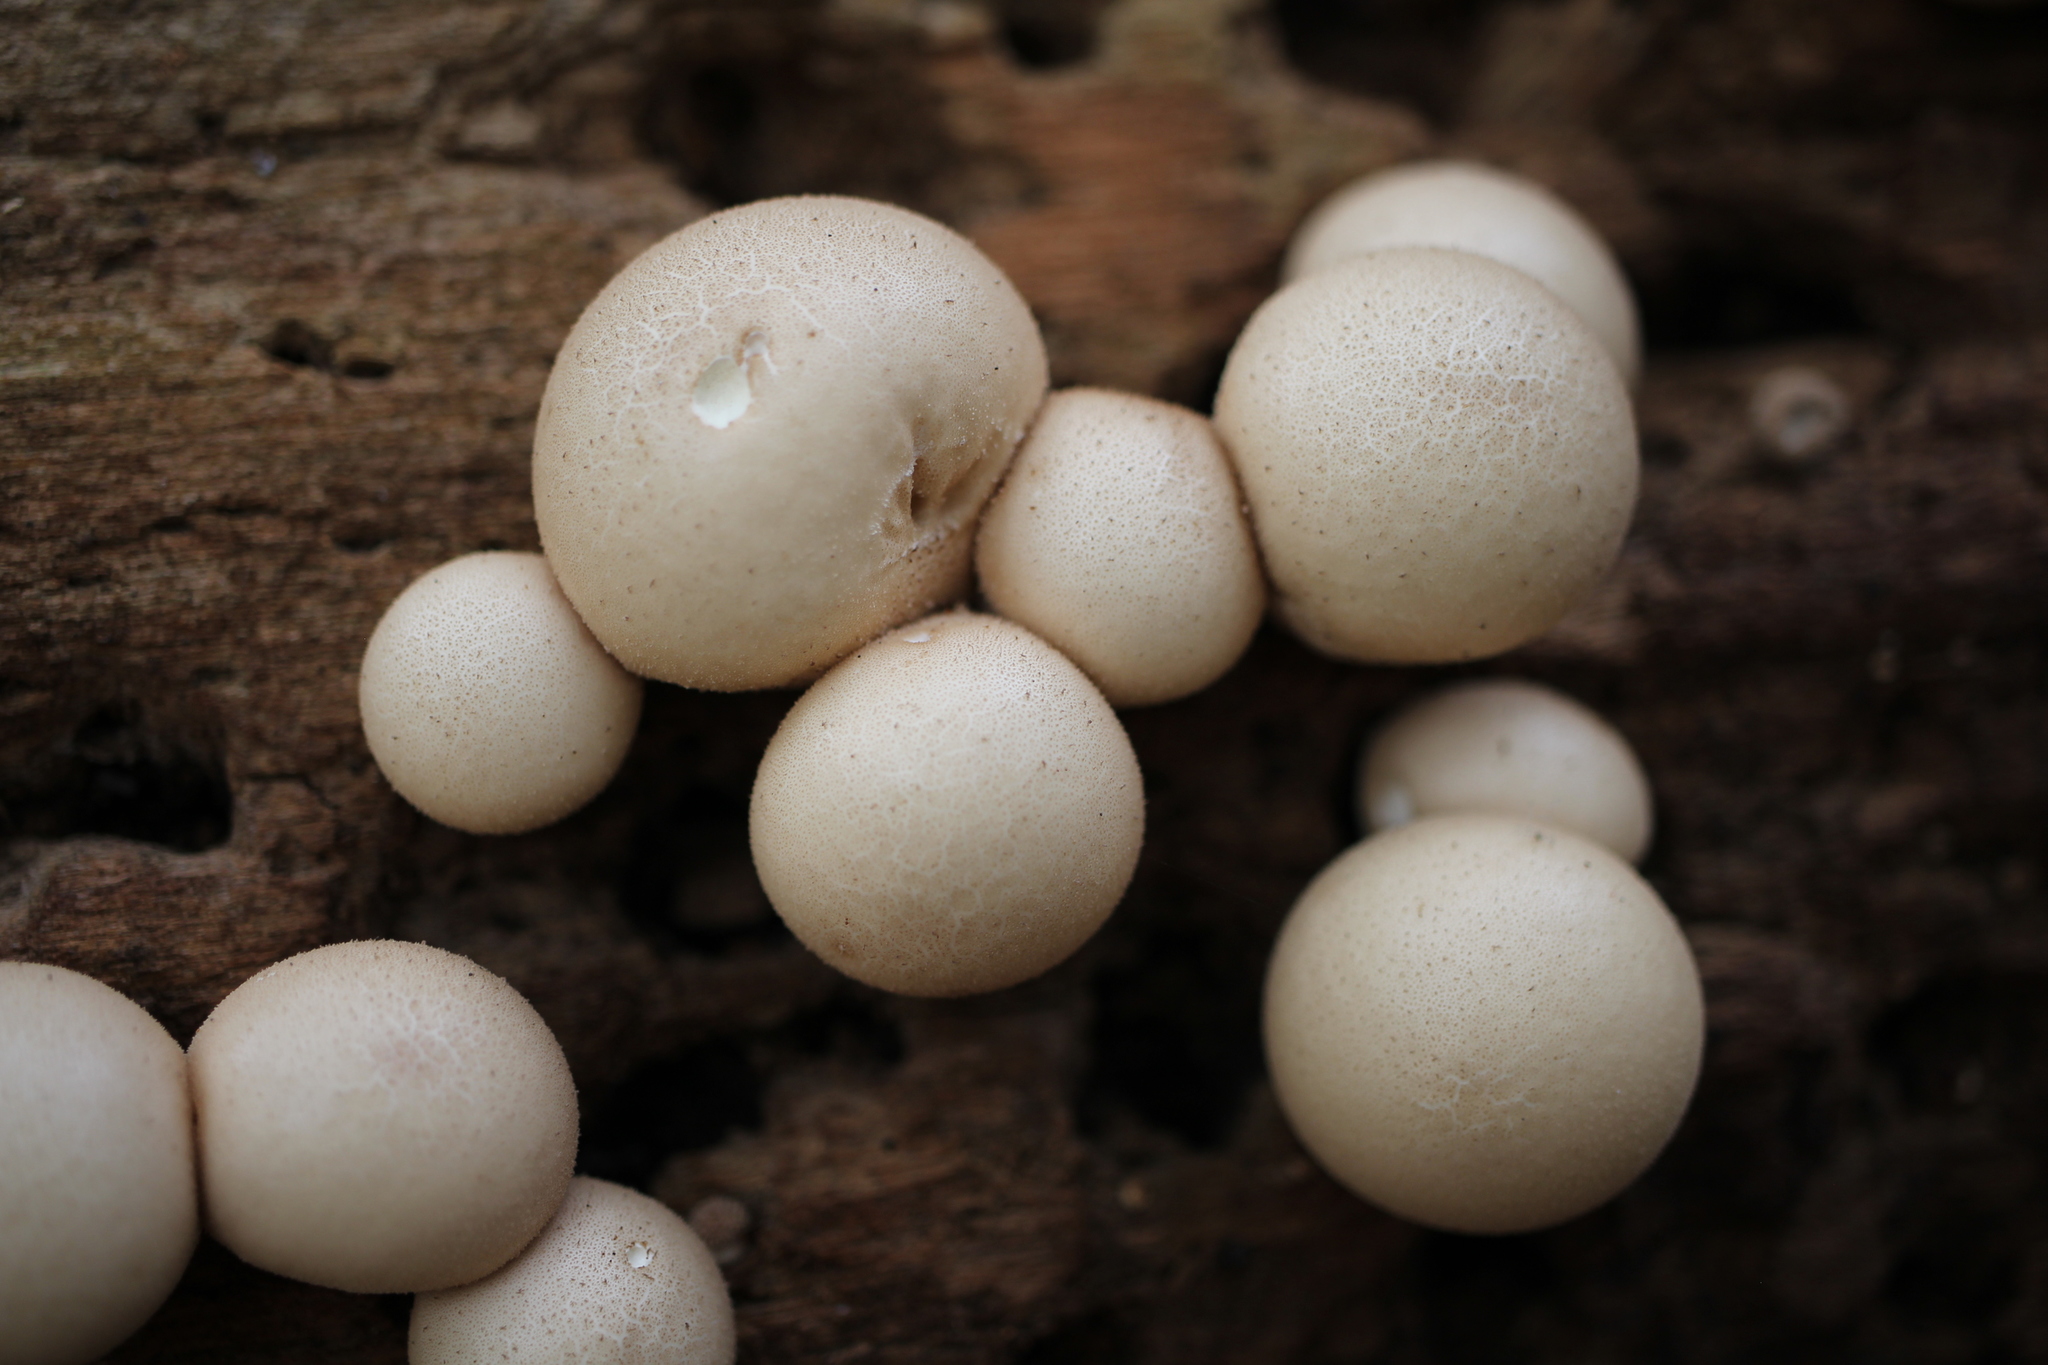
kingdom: Fungi
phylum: Basidiomycota
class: Agaricomycetes
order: Agaricales
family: Lycoperdaceae
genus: Apioperdon
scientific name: Apioperdon pyriforme
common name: Pear-shaped puffball
